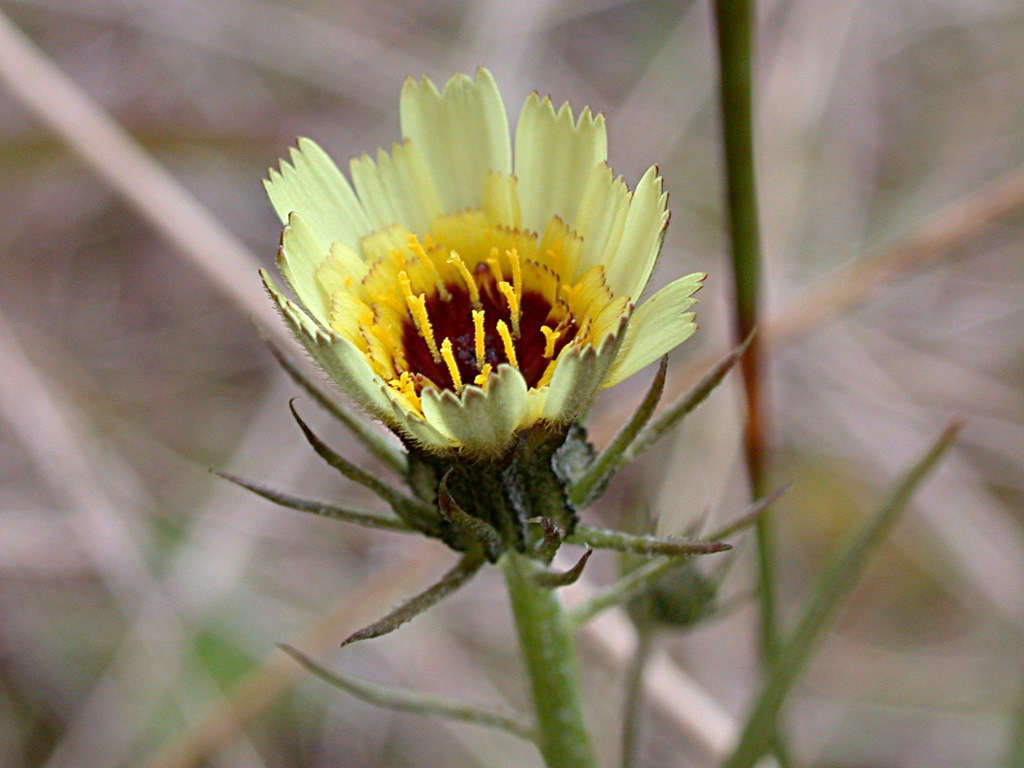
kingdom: Plantae
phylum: Tracheophyta
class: Magnoliopsida
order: Asterales
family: Asteraceae
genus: Tolpis
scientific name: Tolpis barbata
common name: Yellow hawkweed
